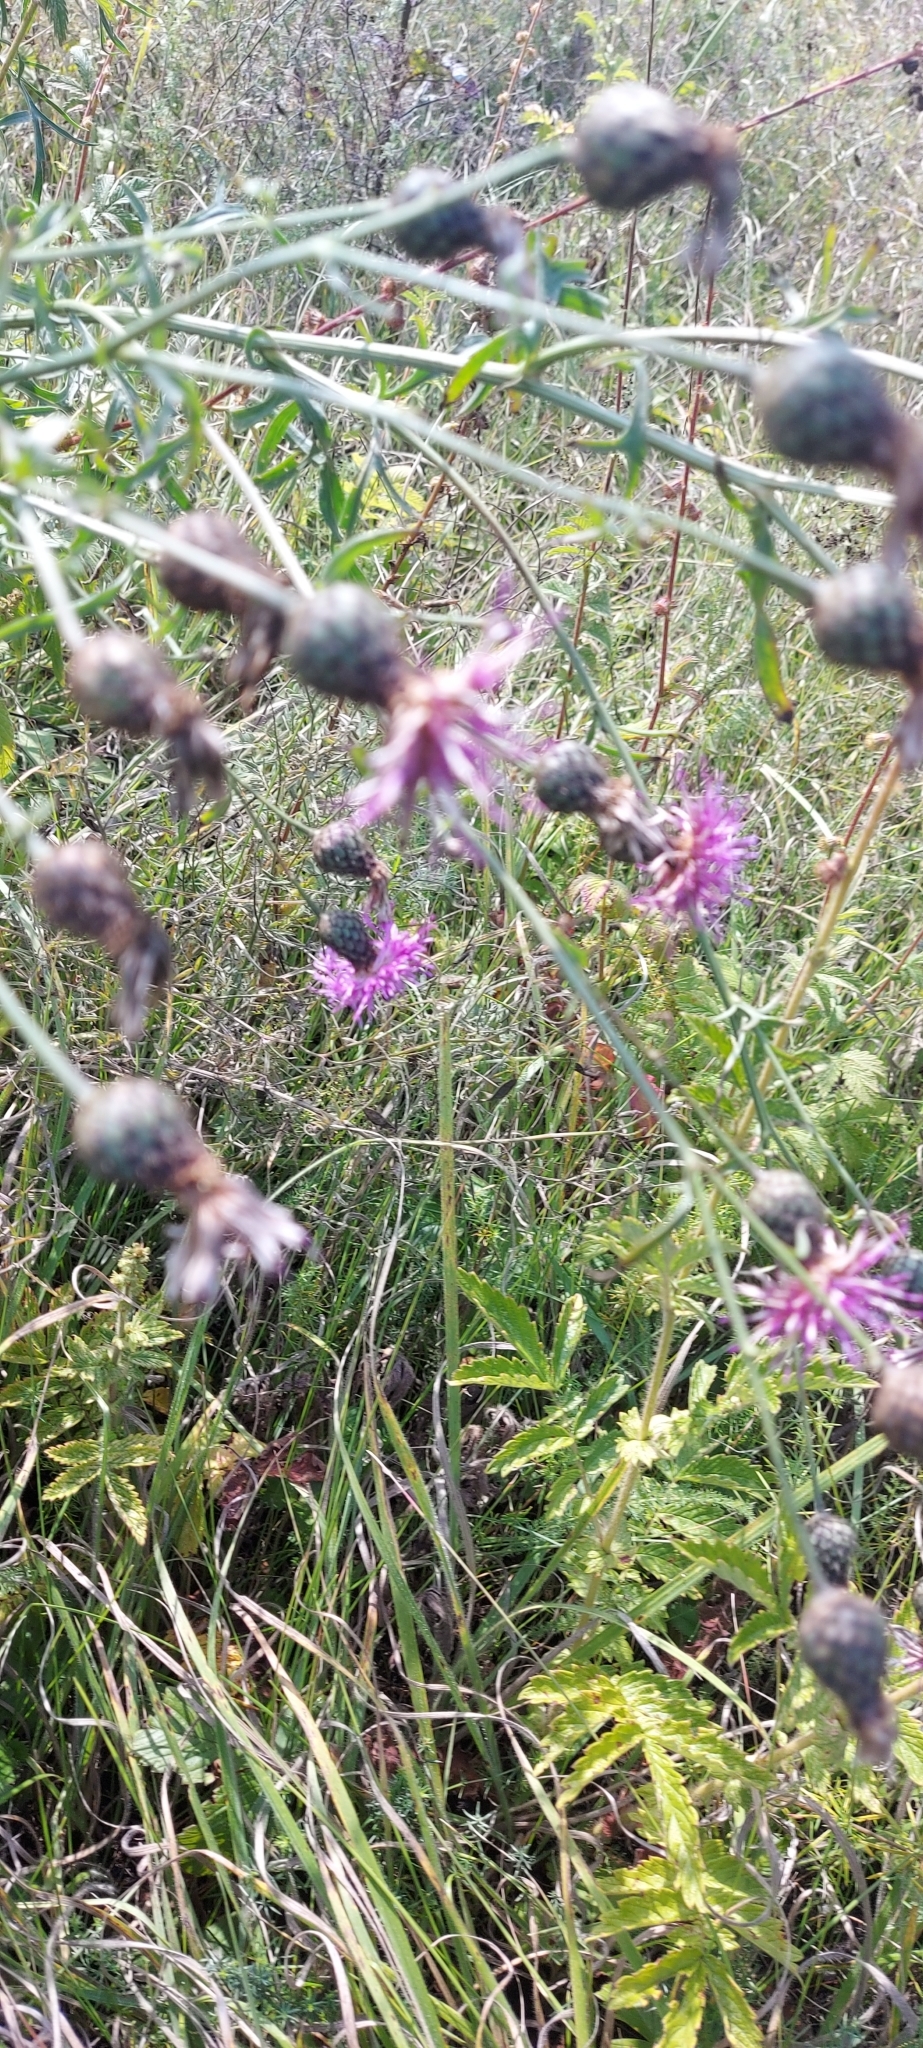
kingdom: Plantae
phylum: Tracheophyta
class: Magnoliopsida
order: Asterales
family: Asteraceae
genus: Centaurea
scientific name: Centaurea scabiosa
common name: Greater knapweed
